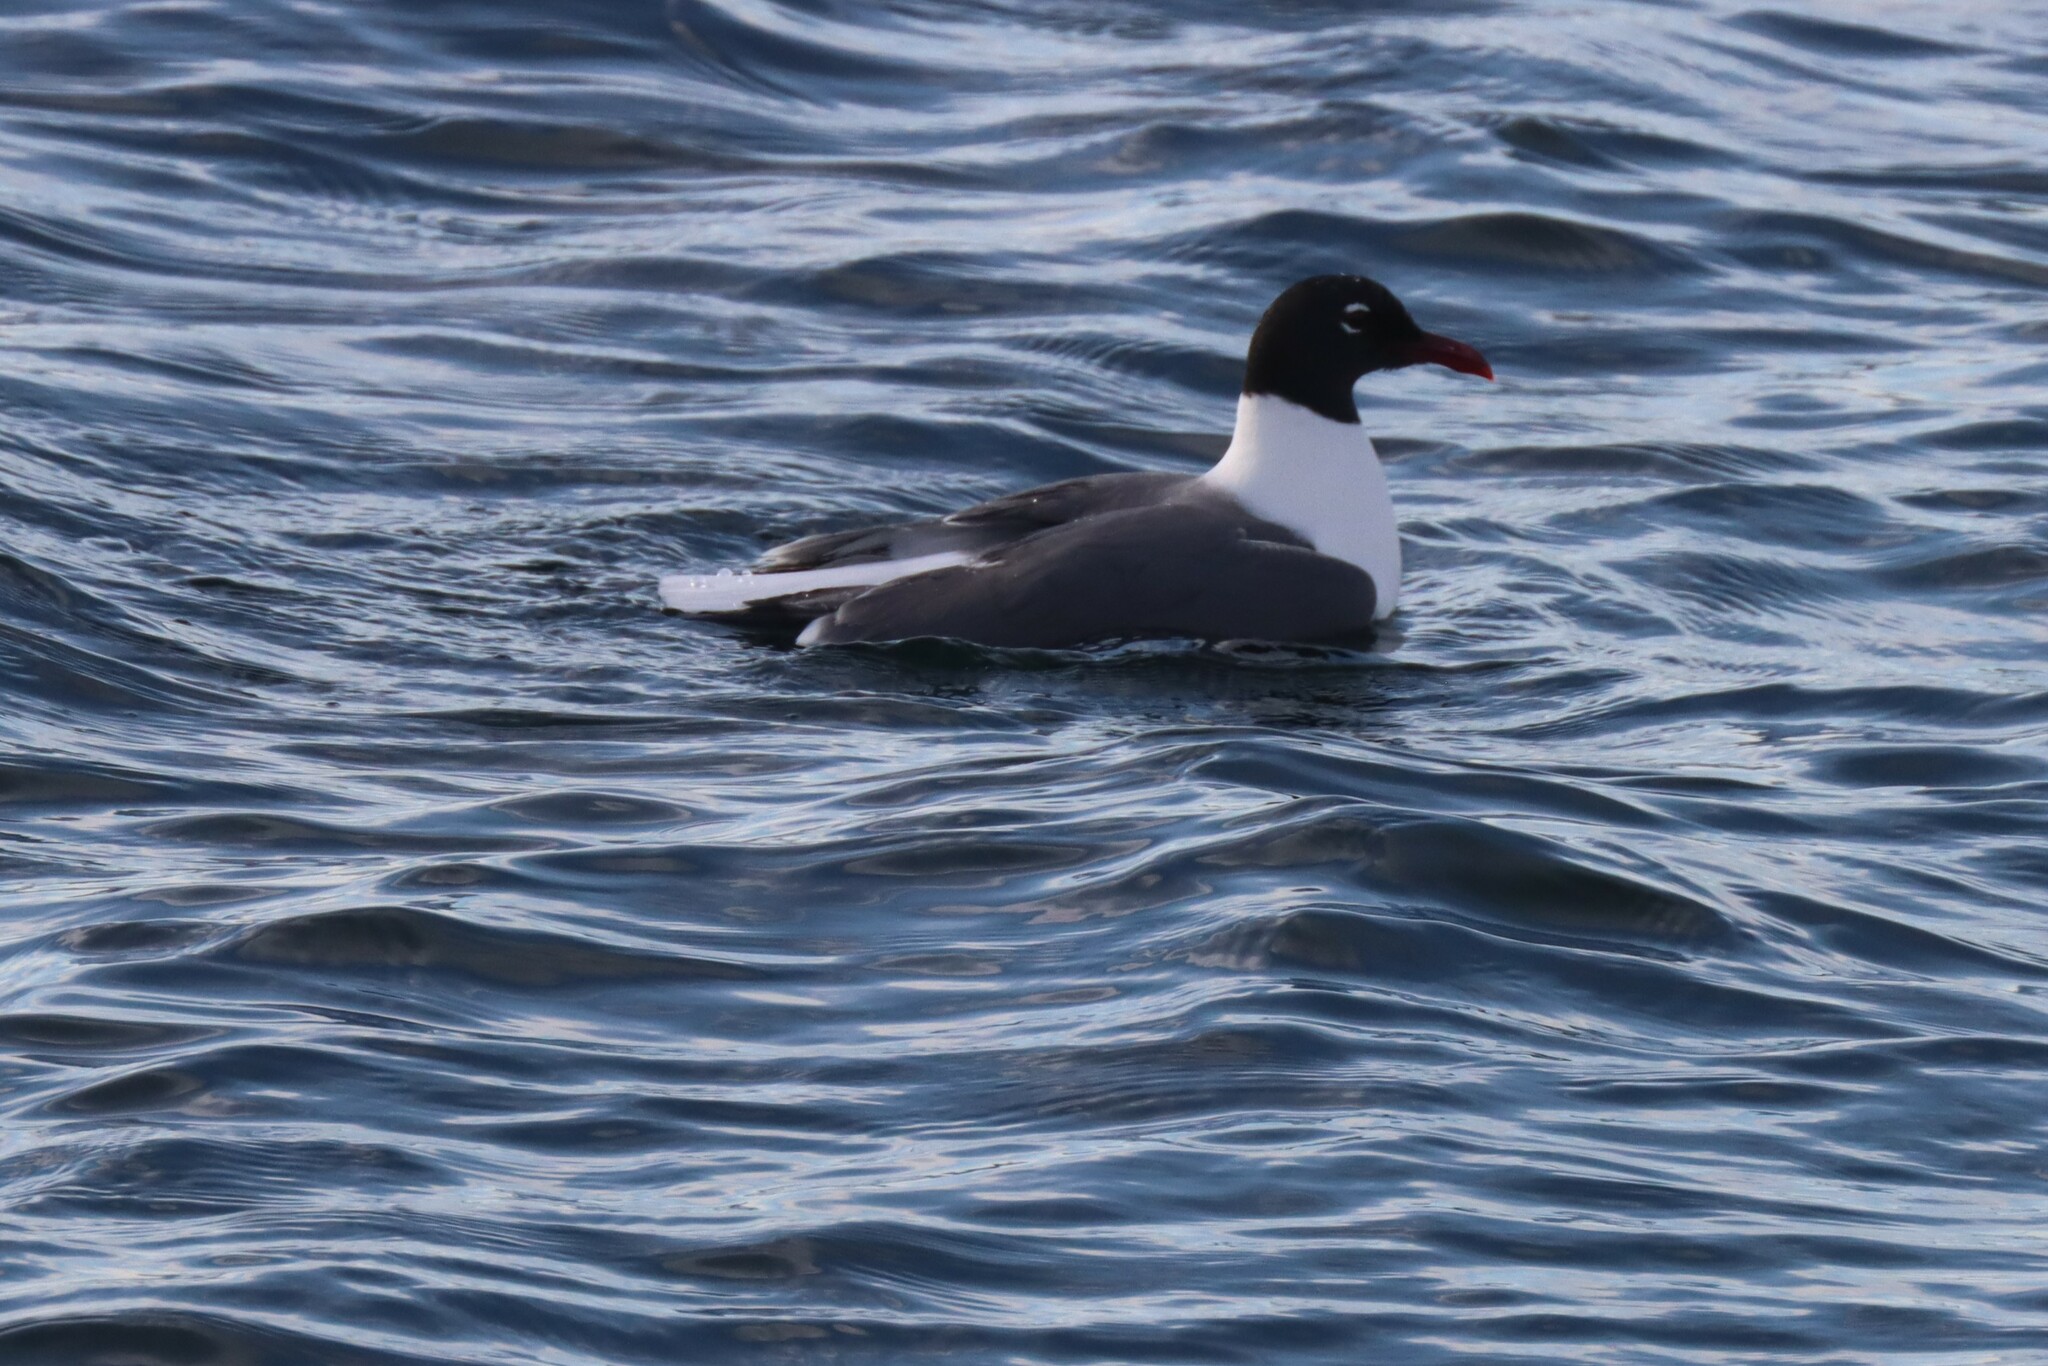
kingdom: Animalia
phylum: Chordata
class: Aves
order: Charadriiformes
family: Laridae
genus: Leucophaeus
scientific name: Leucophaeus atricilla
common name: Laughing gull
